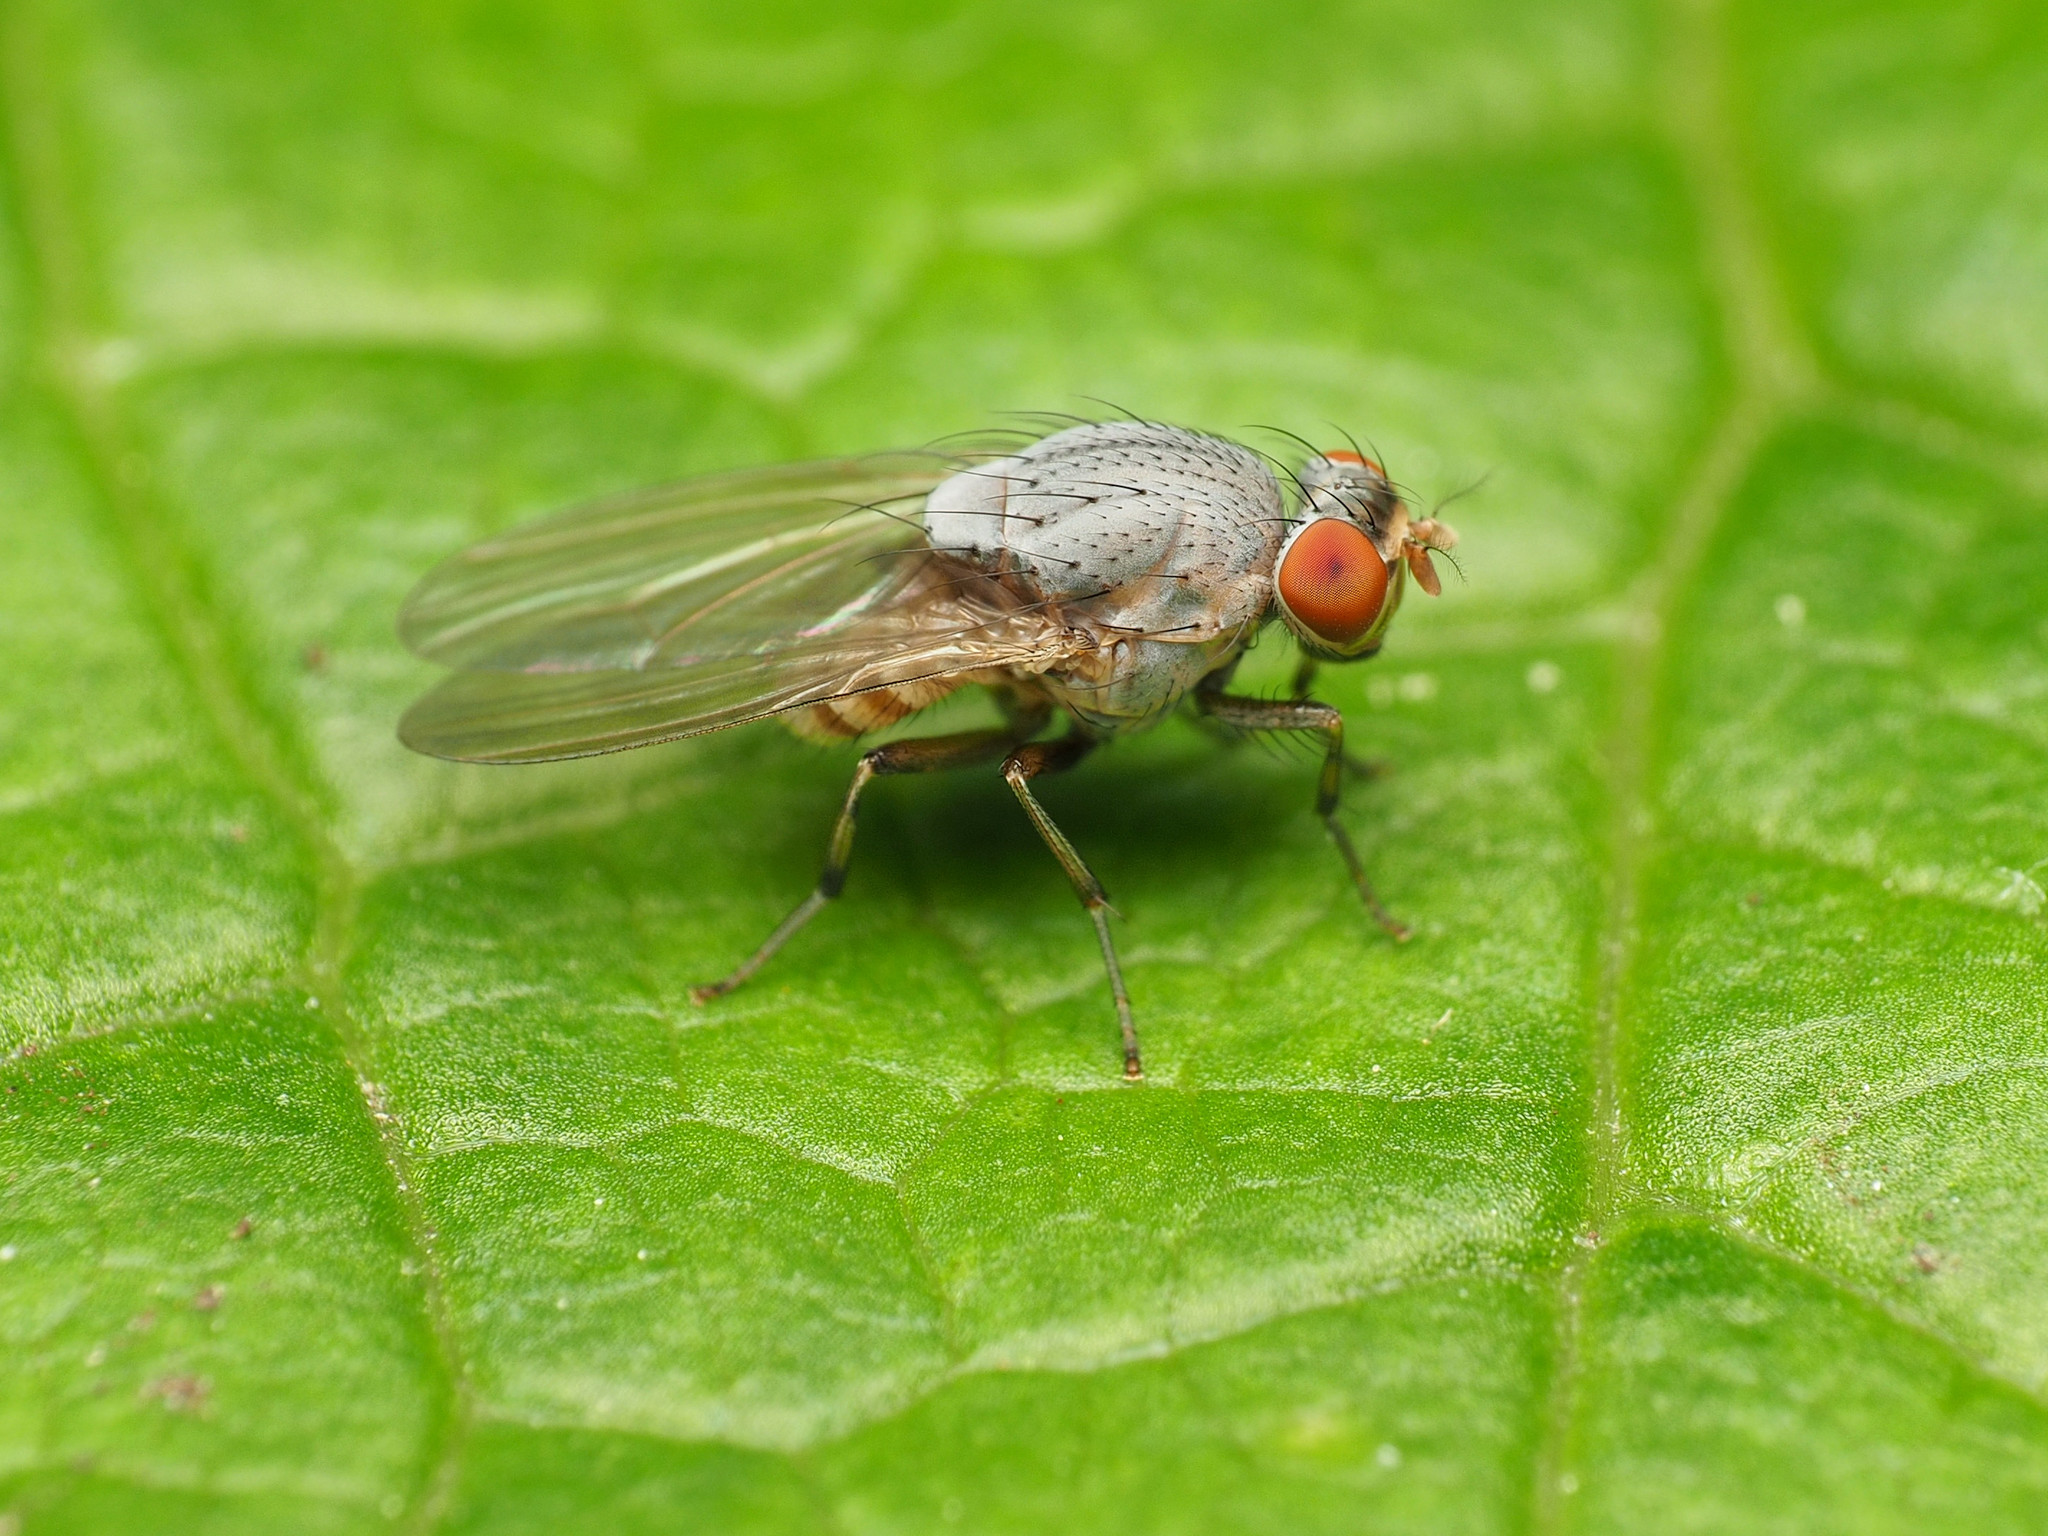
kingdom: Animalia
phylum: Arthropoda
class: Insecta
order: Diptera
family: Lauxaniidae
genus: Minettia
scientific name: Minettia magna
